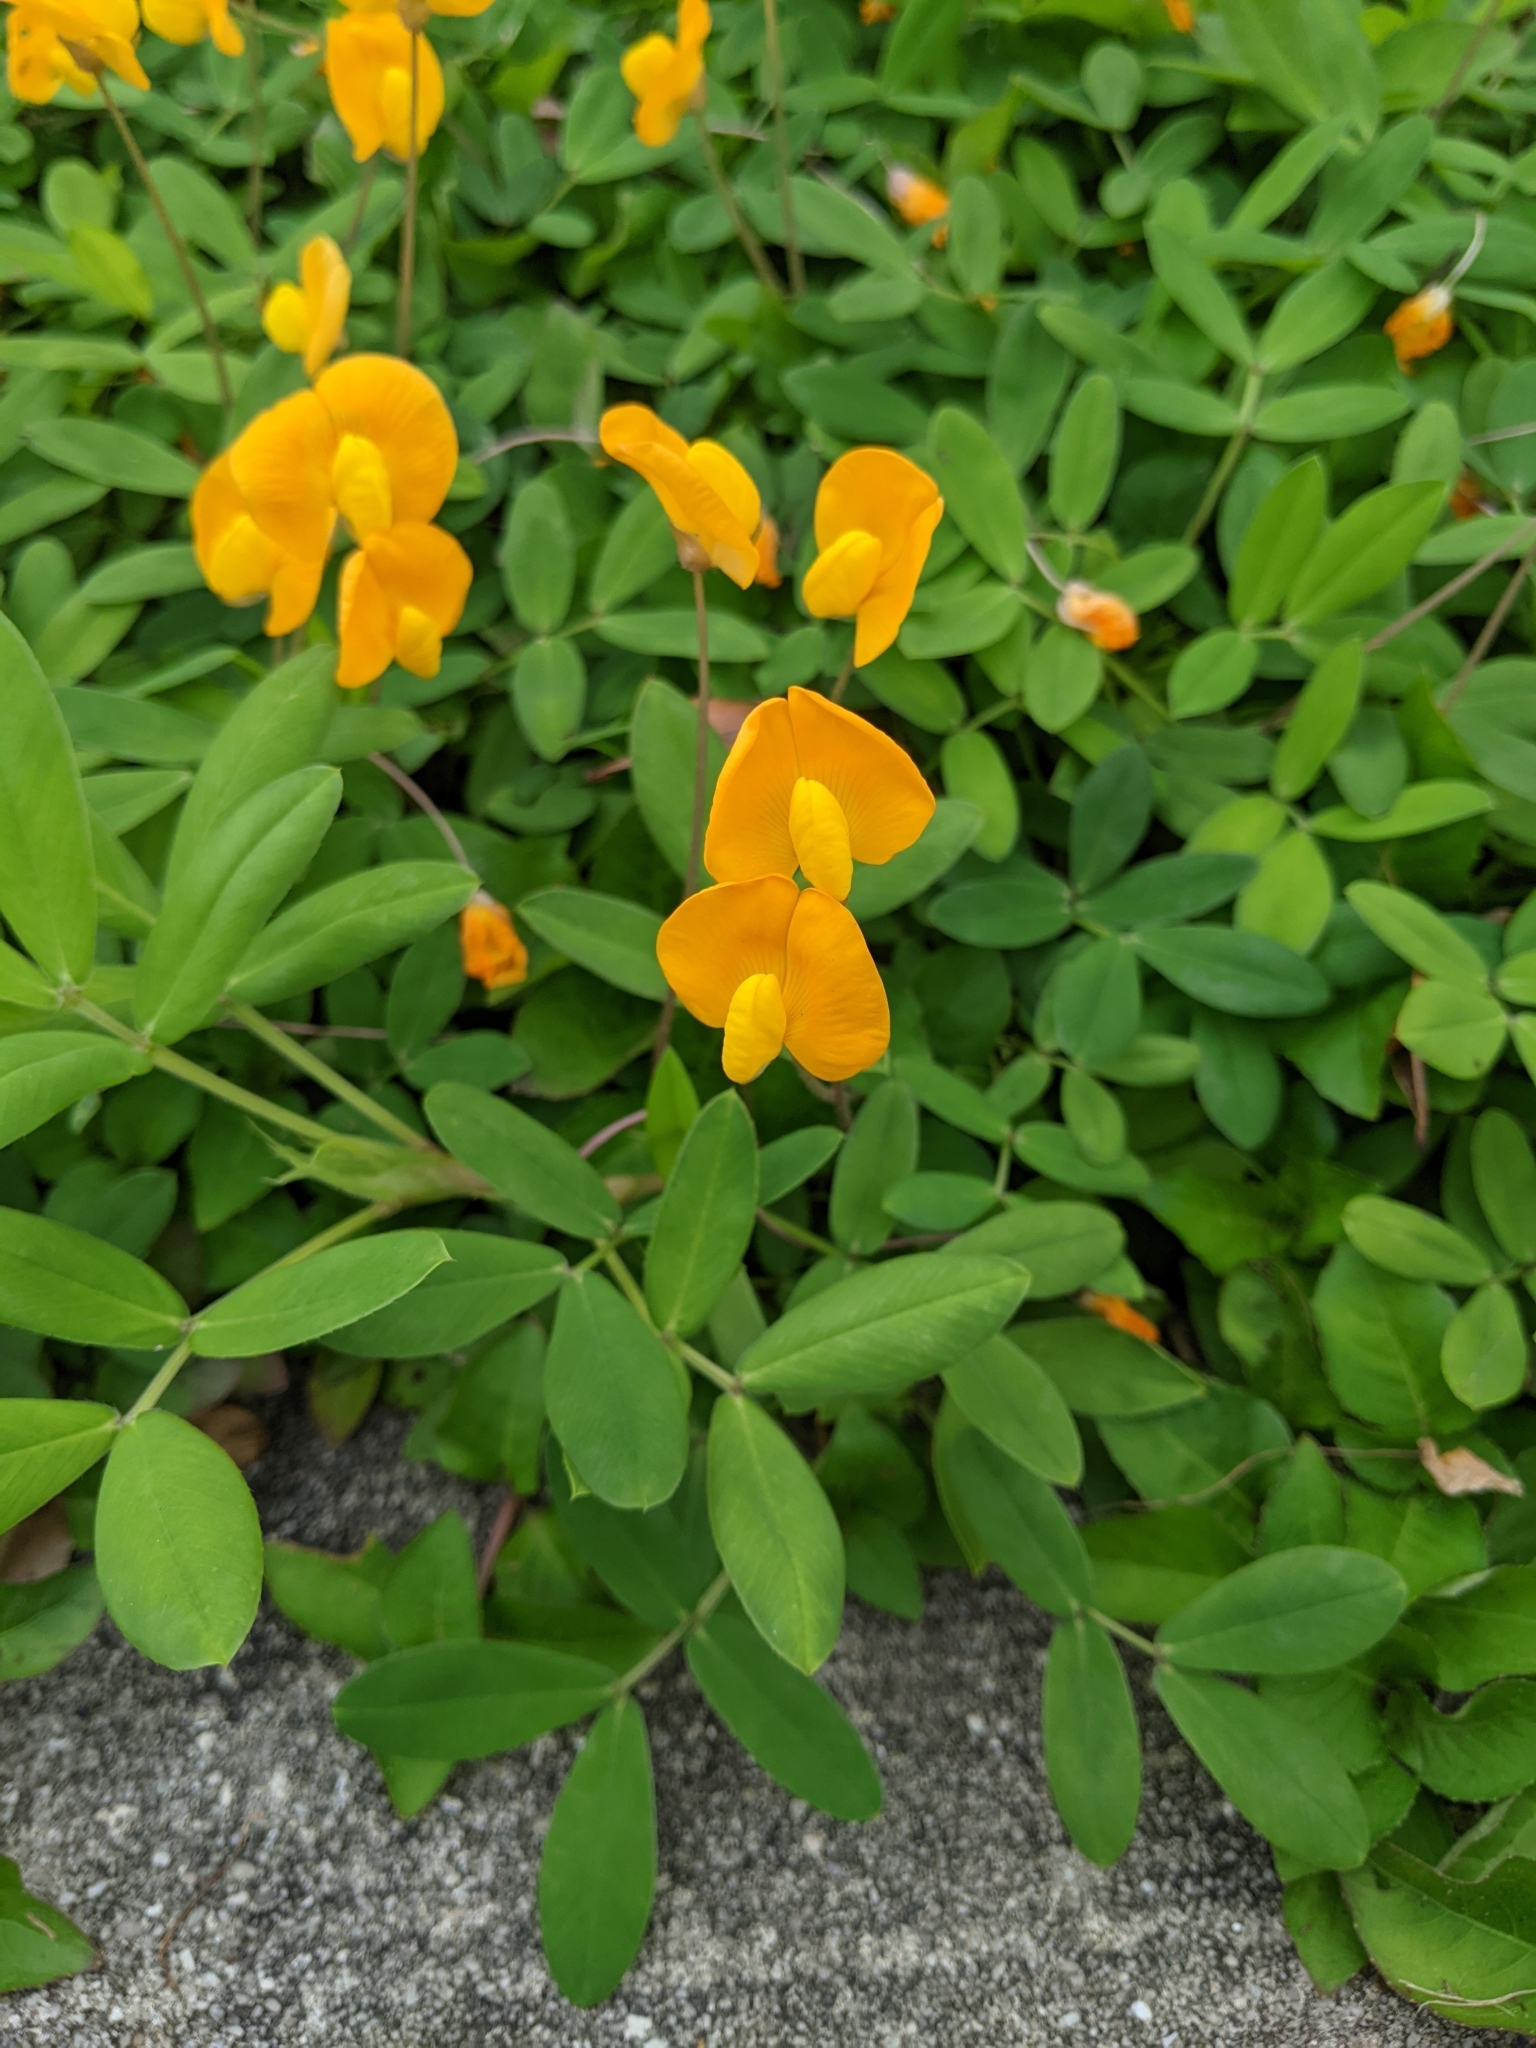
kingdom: Plantae
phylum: Tracheophyta
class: Magnoliopsida
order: Fabales
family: Fabaceae
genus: Arachis
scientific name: Arachis pintoi
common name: Pinto peanut
